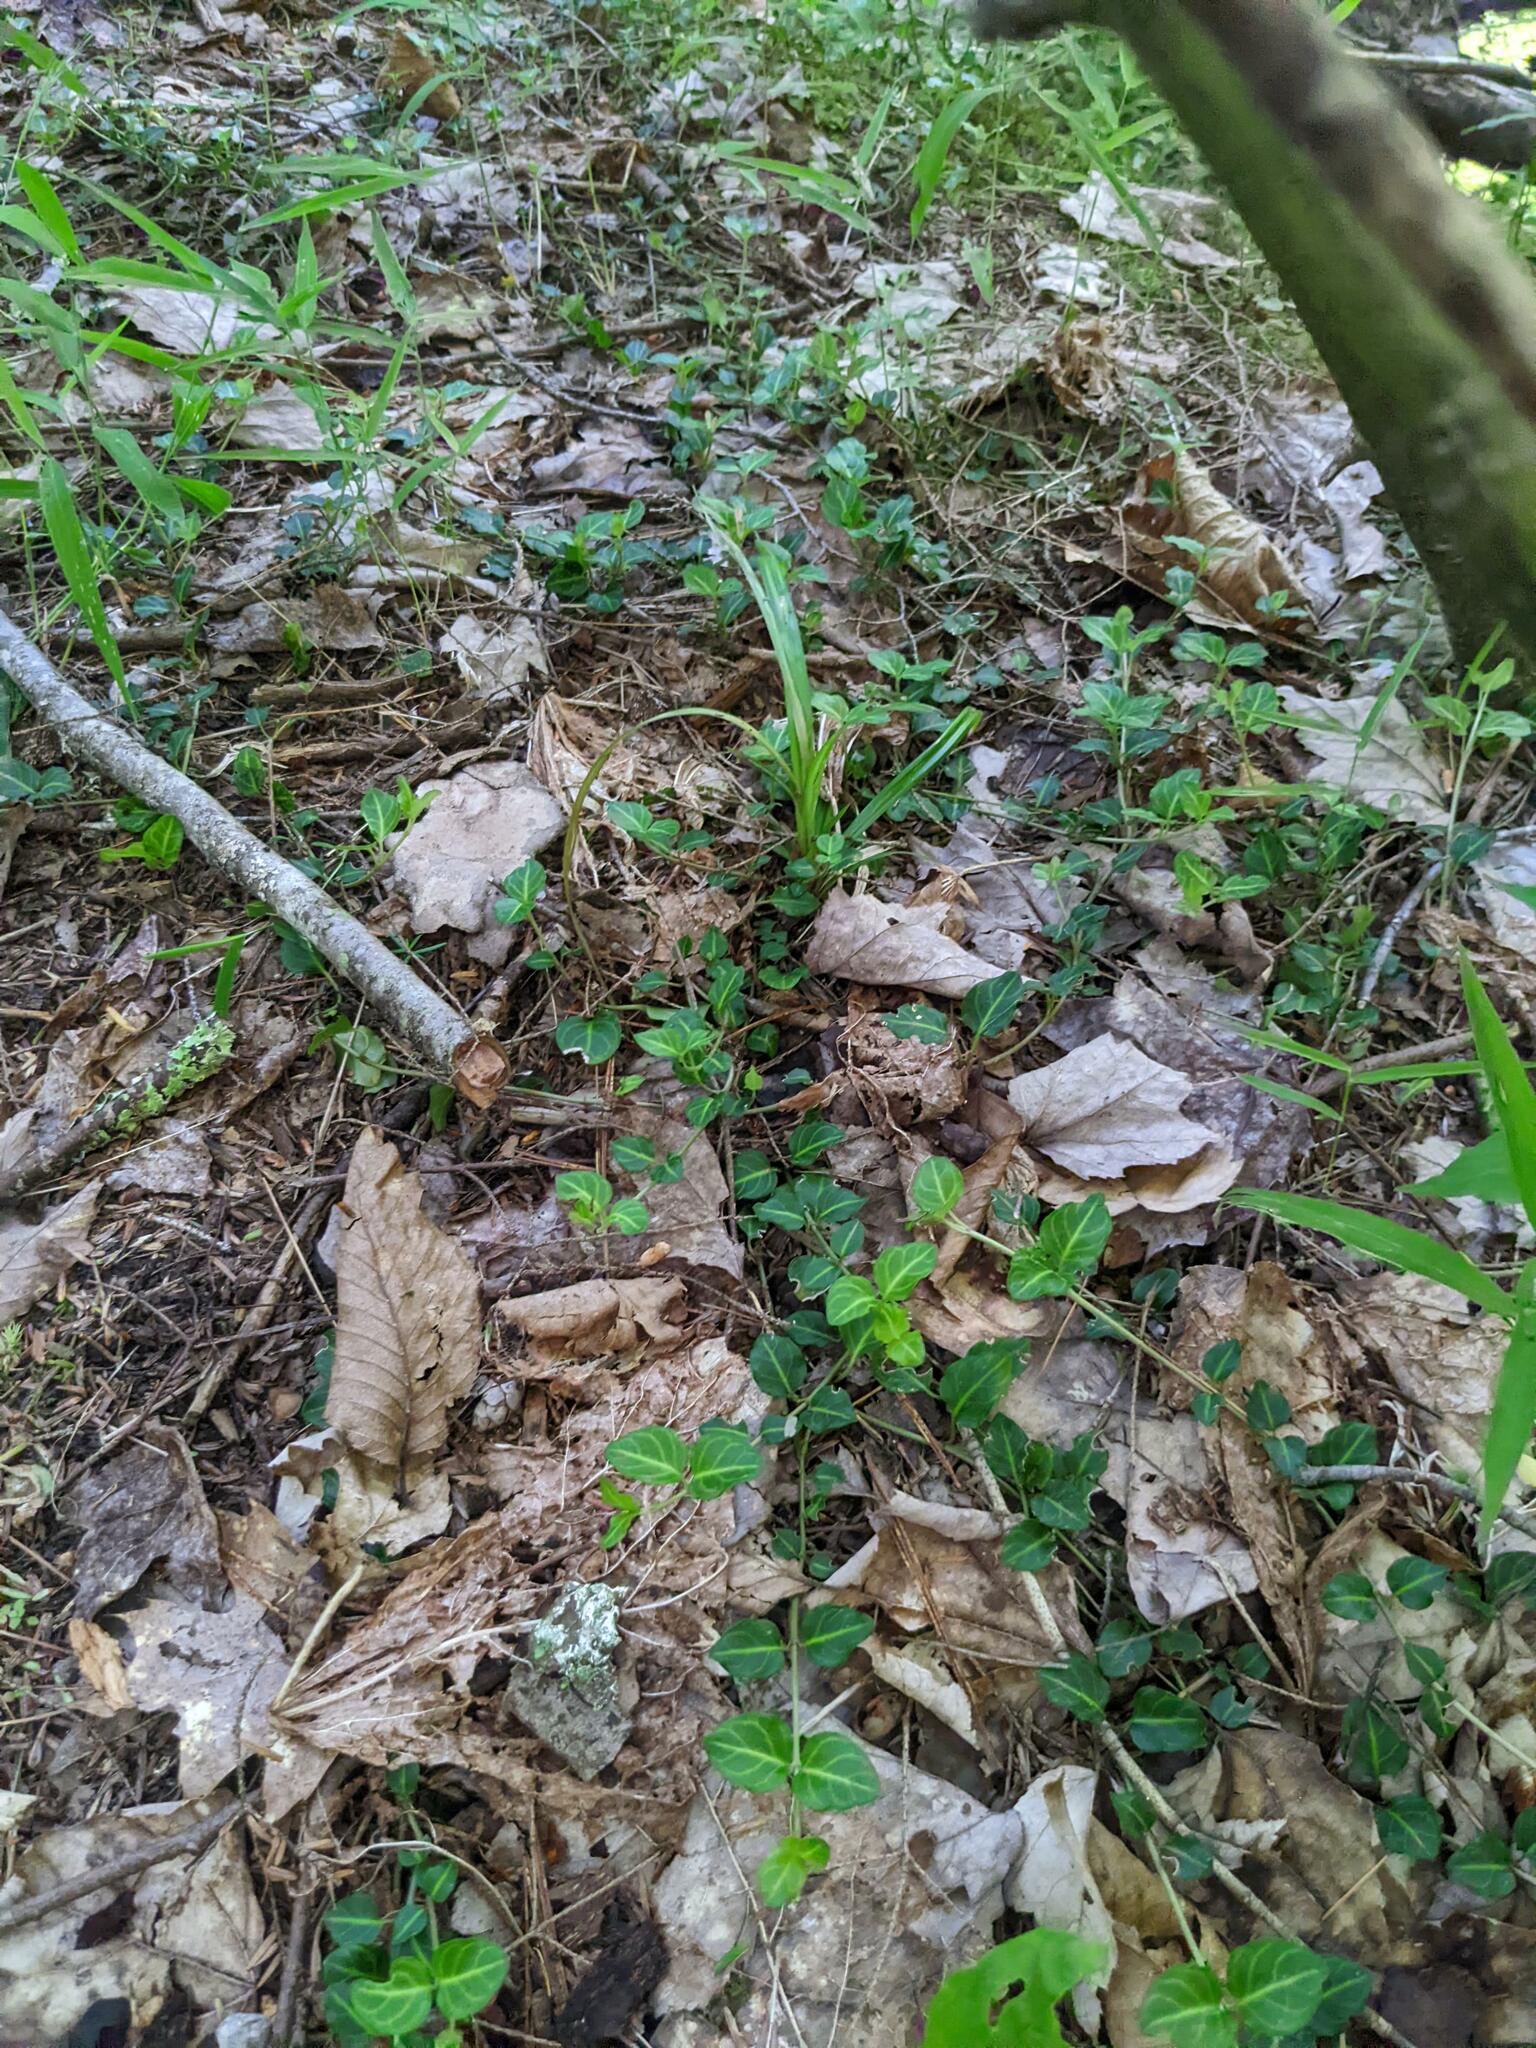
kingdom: Plantae
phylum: Tracheophyta
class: Magnoliopsida
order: Gentianales
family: Rubiaceae
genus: Mitchella
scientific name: Mitchella repens
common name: Partridge-berry
